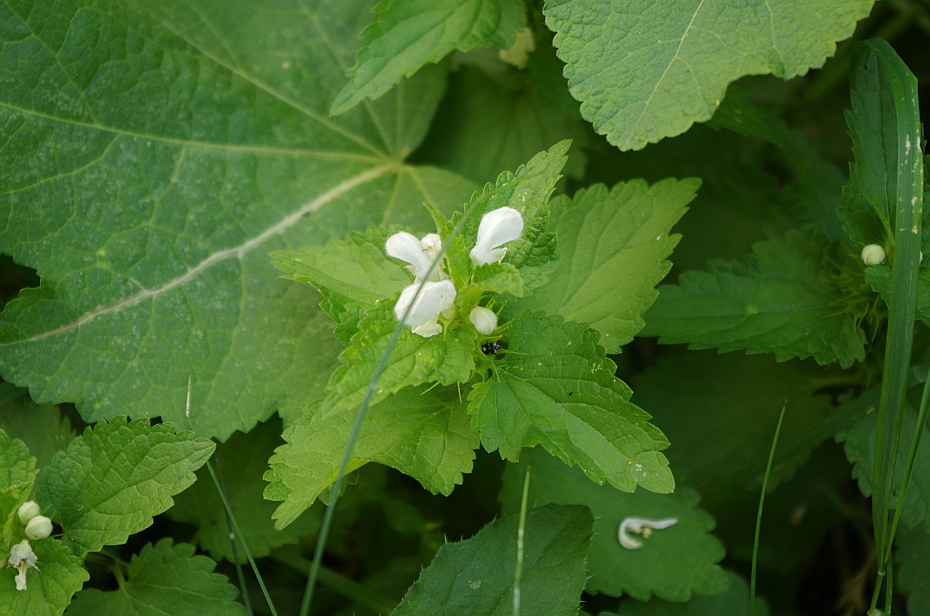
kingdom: Plantae
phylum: Tracheophyta
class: Magnoliopsida
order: Lamiales
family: Lamiaceae
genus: Lamium
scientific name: Lamium album
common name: White dead-nettle
